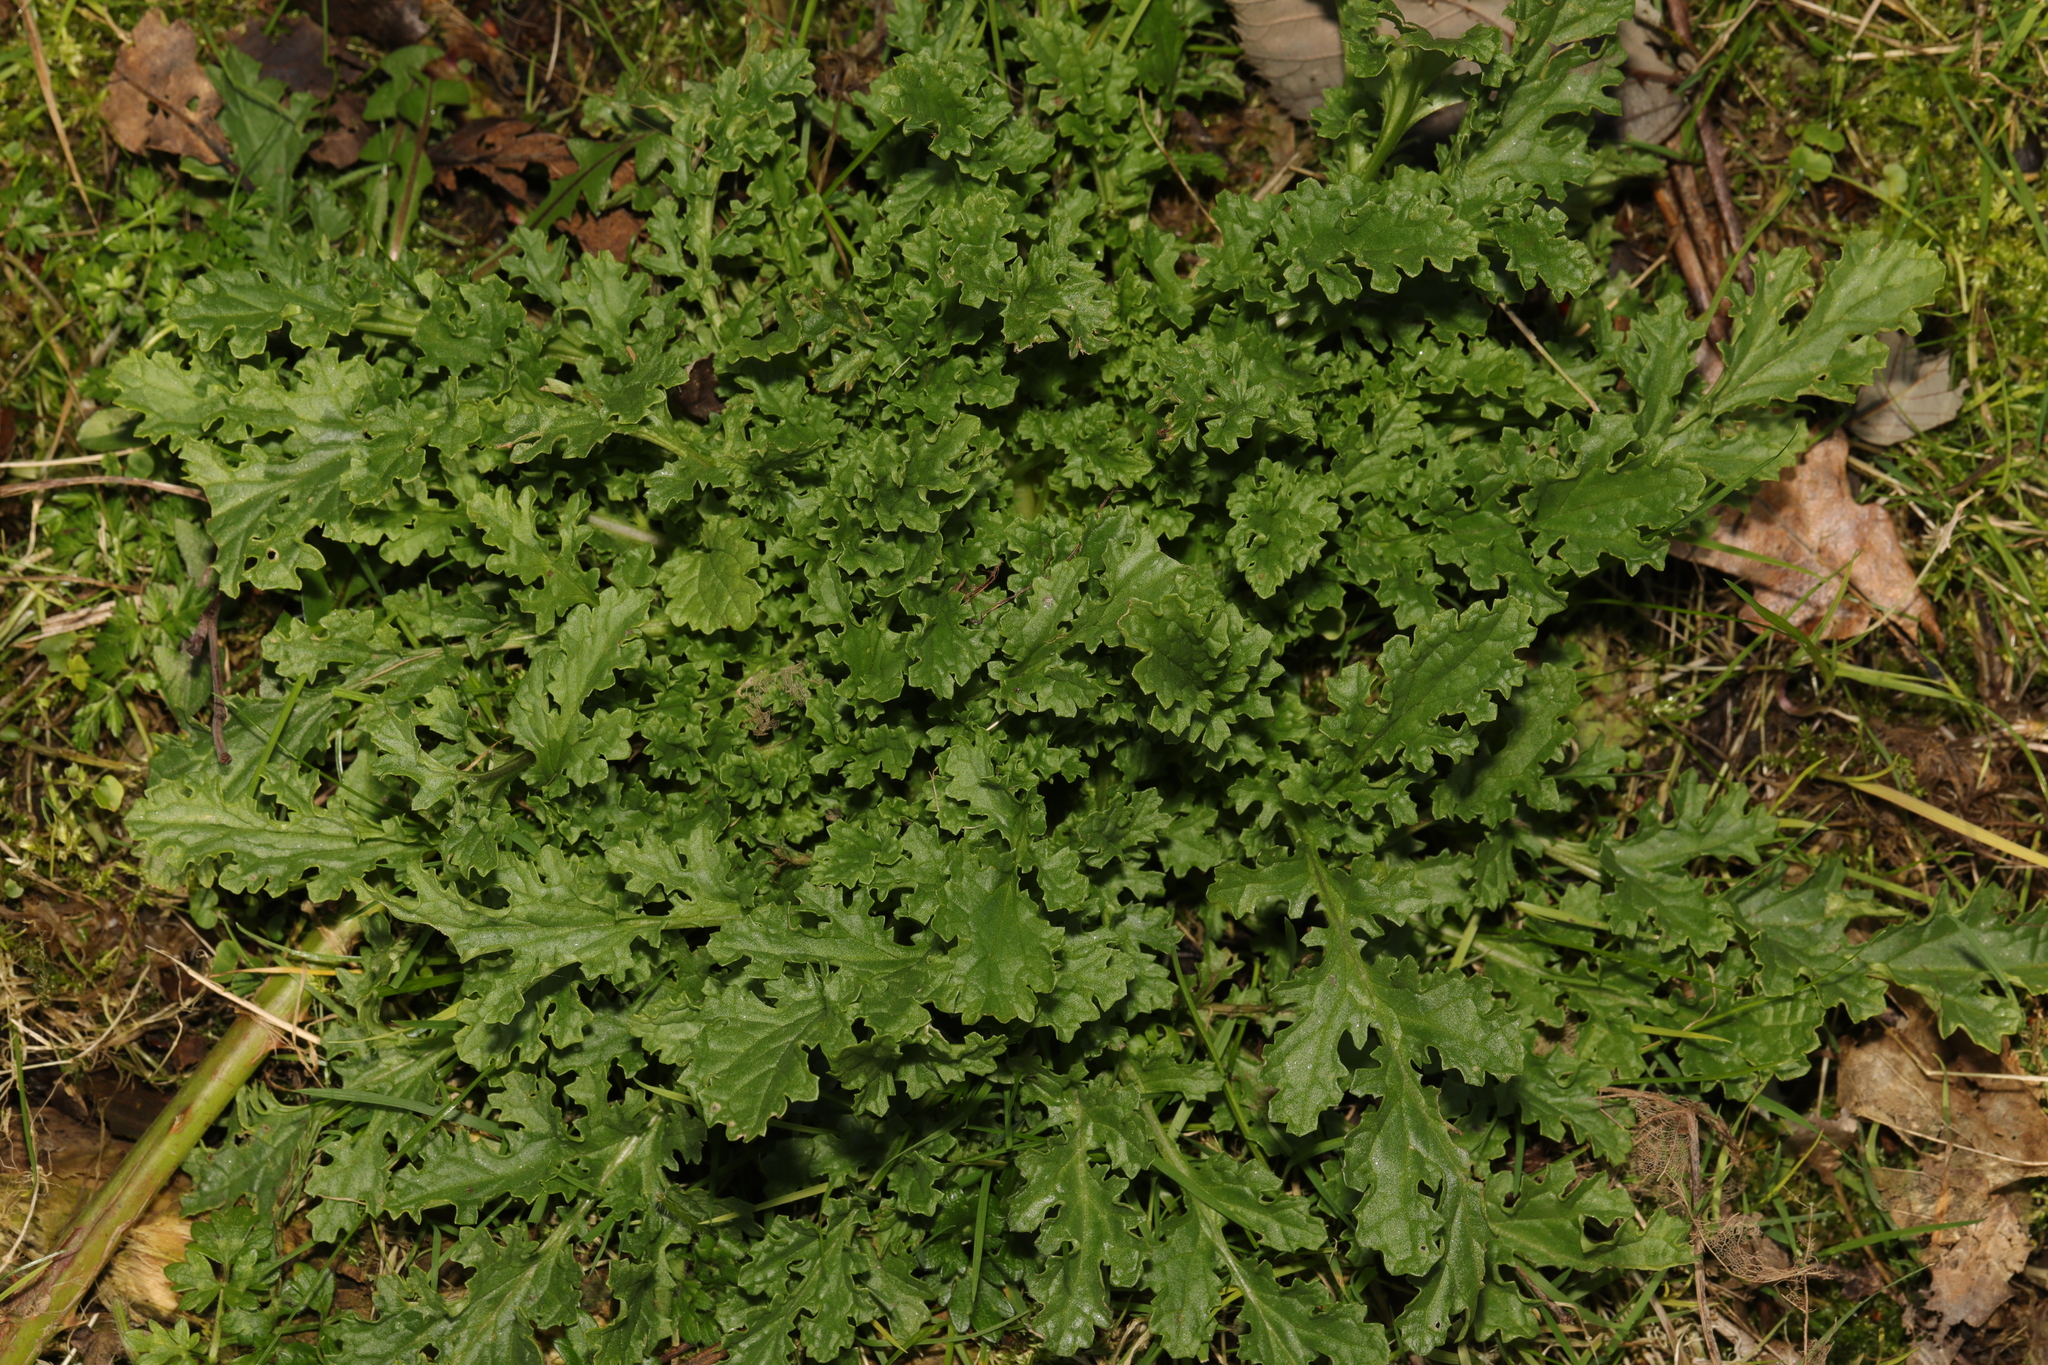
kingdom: Plantae
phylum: Tracheophyta
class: Magnoliopsida
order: Asterales
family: Asteraceae
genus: Jacobaea
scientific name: Jacobaea vulgaris
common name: Stinking willie
